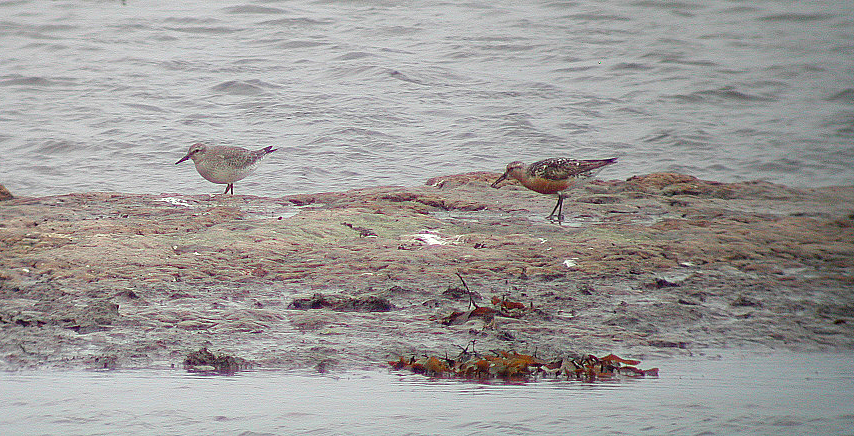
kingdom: Animalia
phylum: Chordata
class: Aves
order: Charadriiformes
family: Scolopacidae
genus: Calidris
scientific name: Calidris canutus
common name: Red knot
